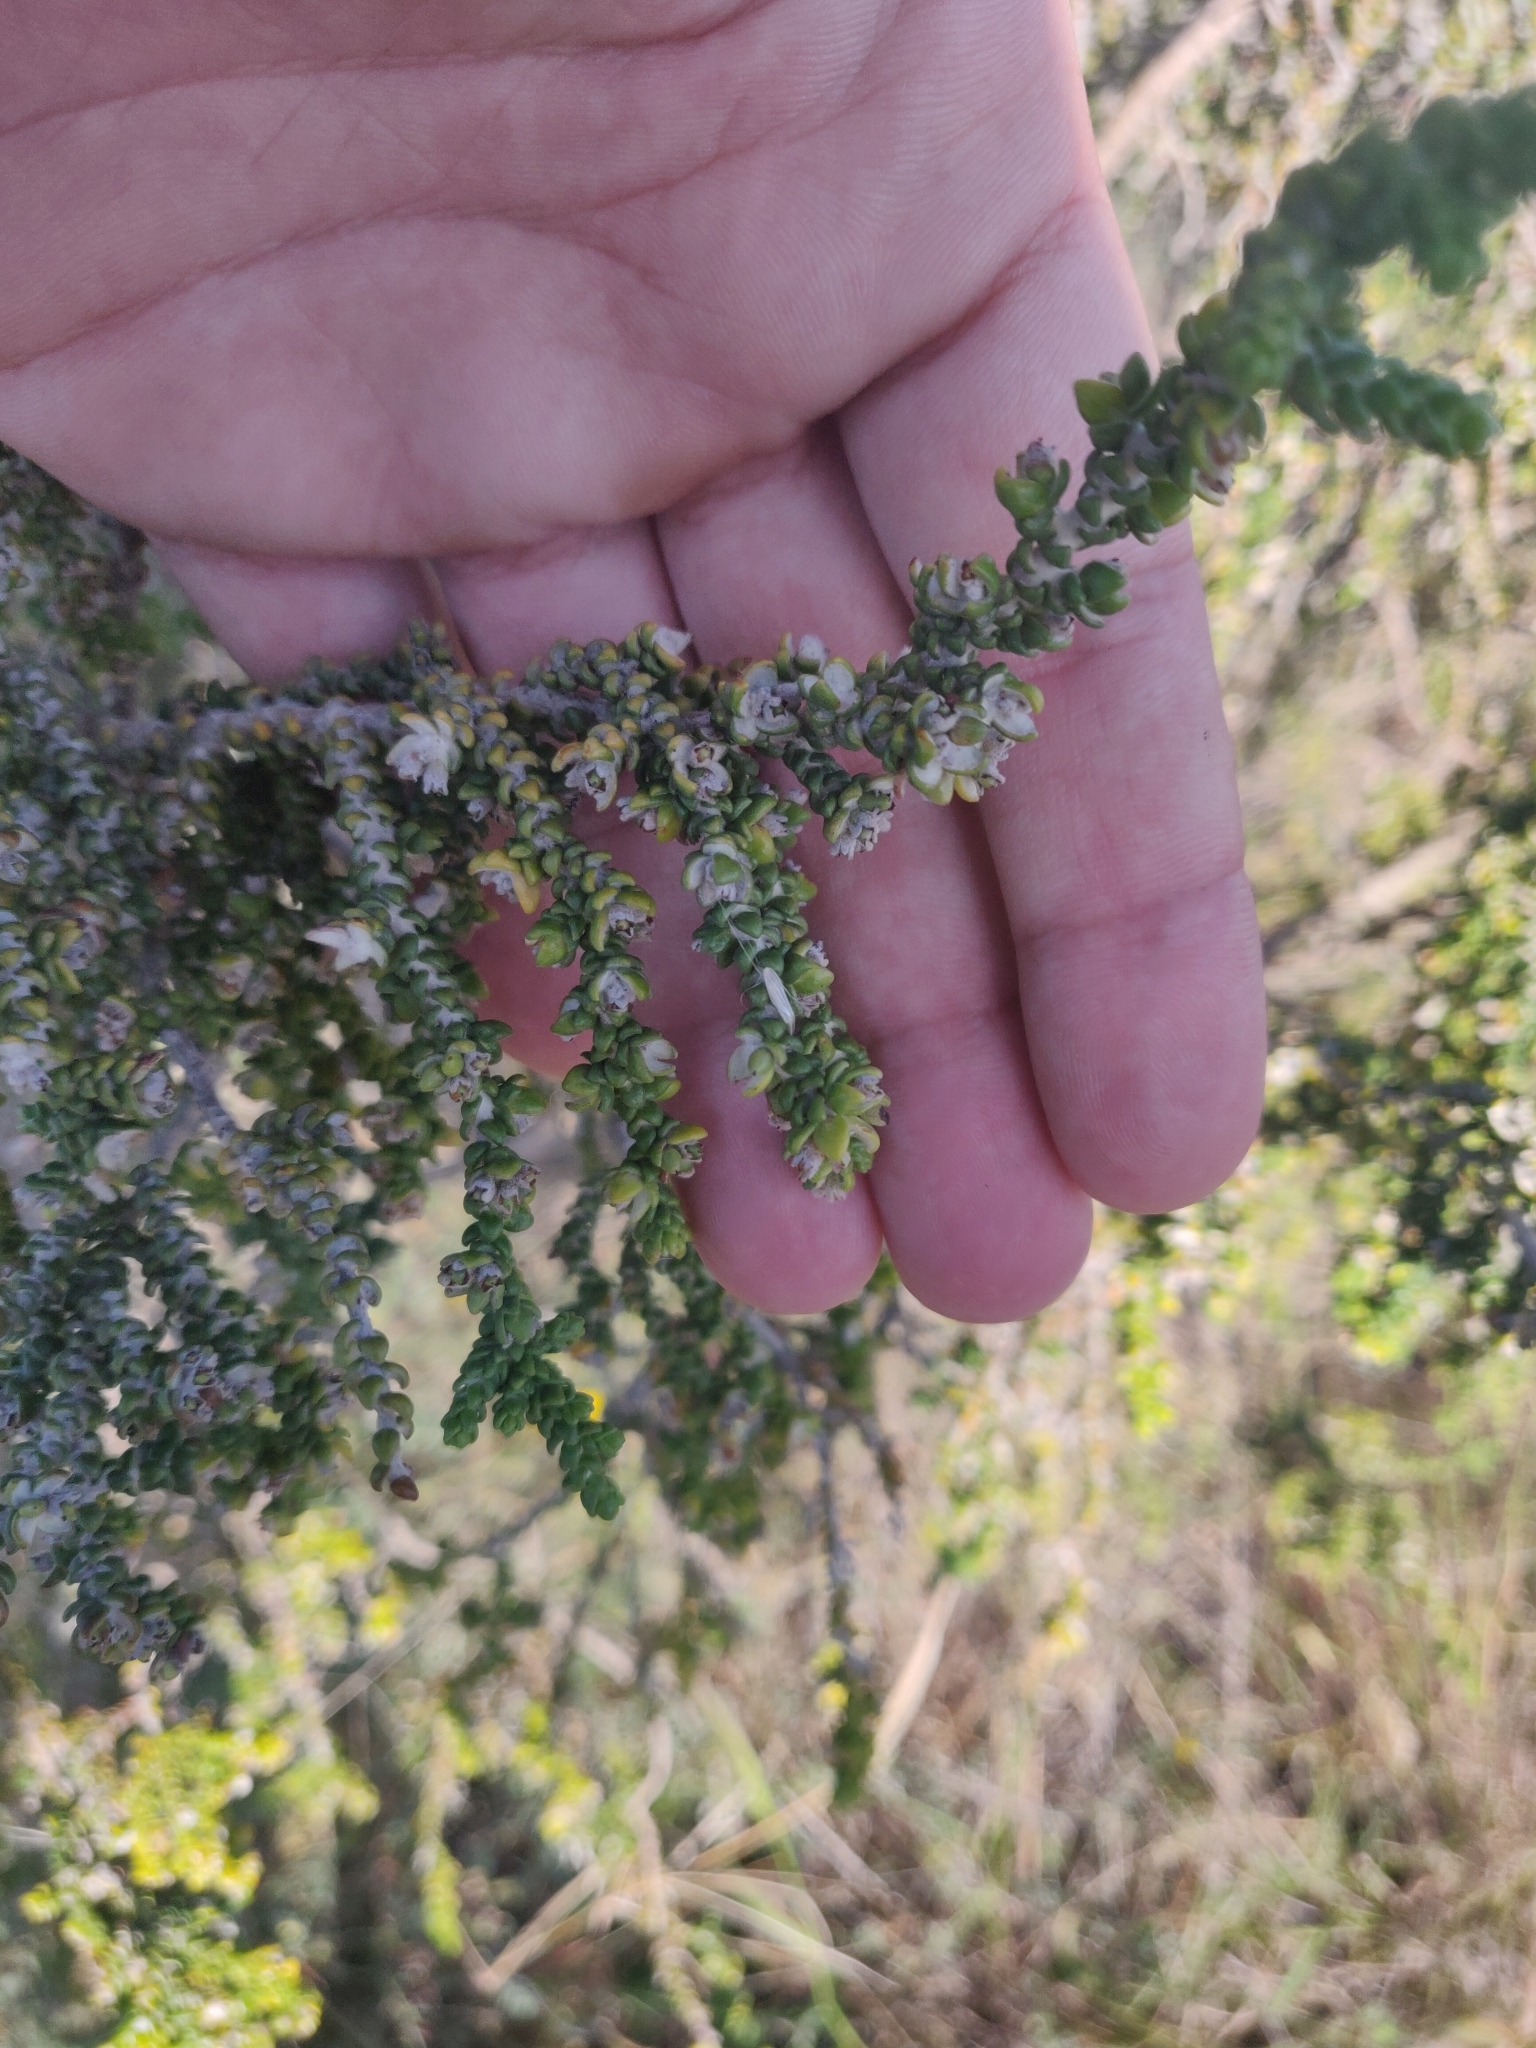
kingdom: Plantae
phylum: Tracheophyta
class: Magnoliopsida
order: Malvales
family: Thymelaeaceae
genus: Thymelaea
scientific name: Thymelaea hirsuta
